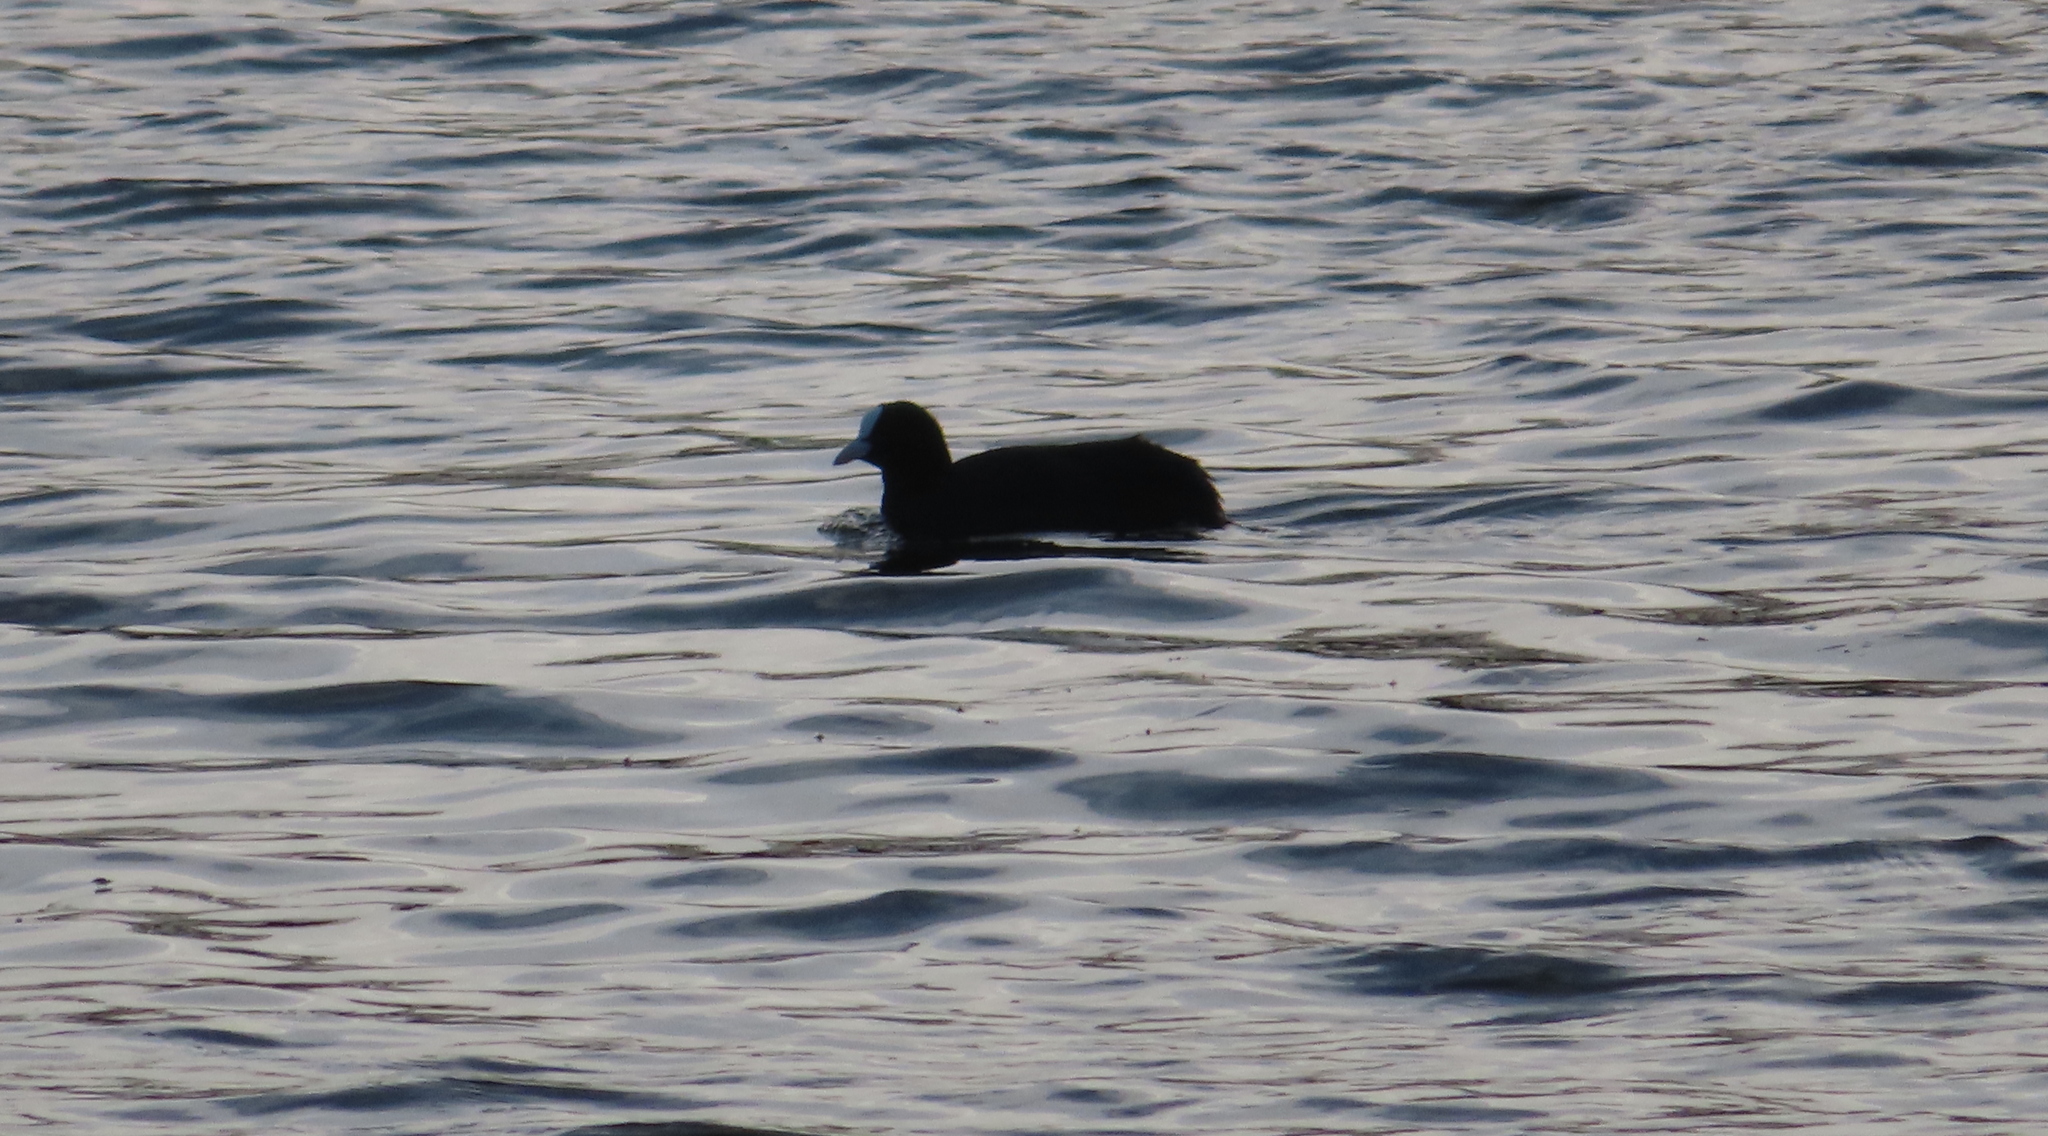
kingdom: Animalia
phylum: Chordata
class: Aves
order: Gruiformes
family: Rallidae
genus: Fulica
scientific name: Fulica atra
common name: Eurasian coot
